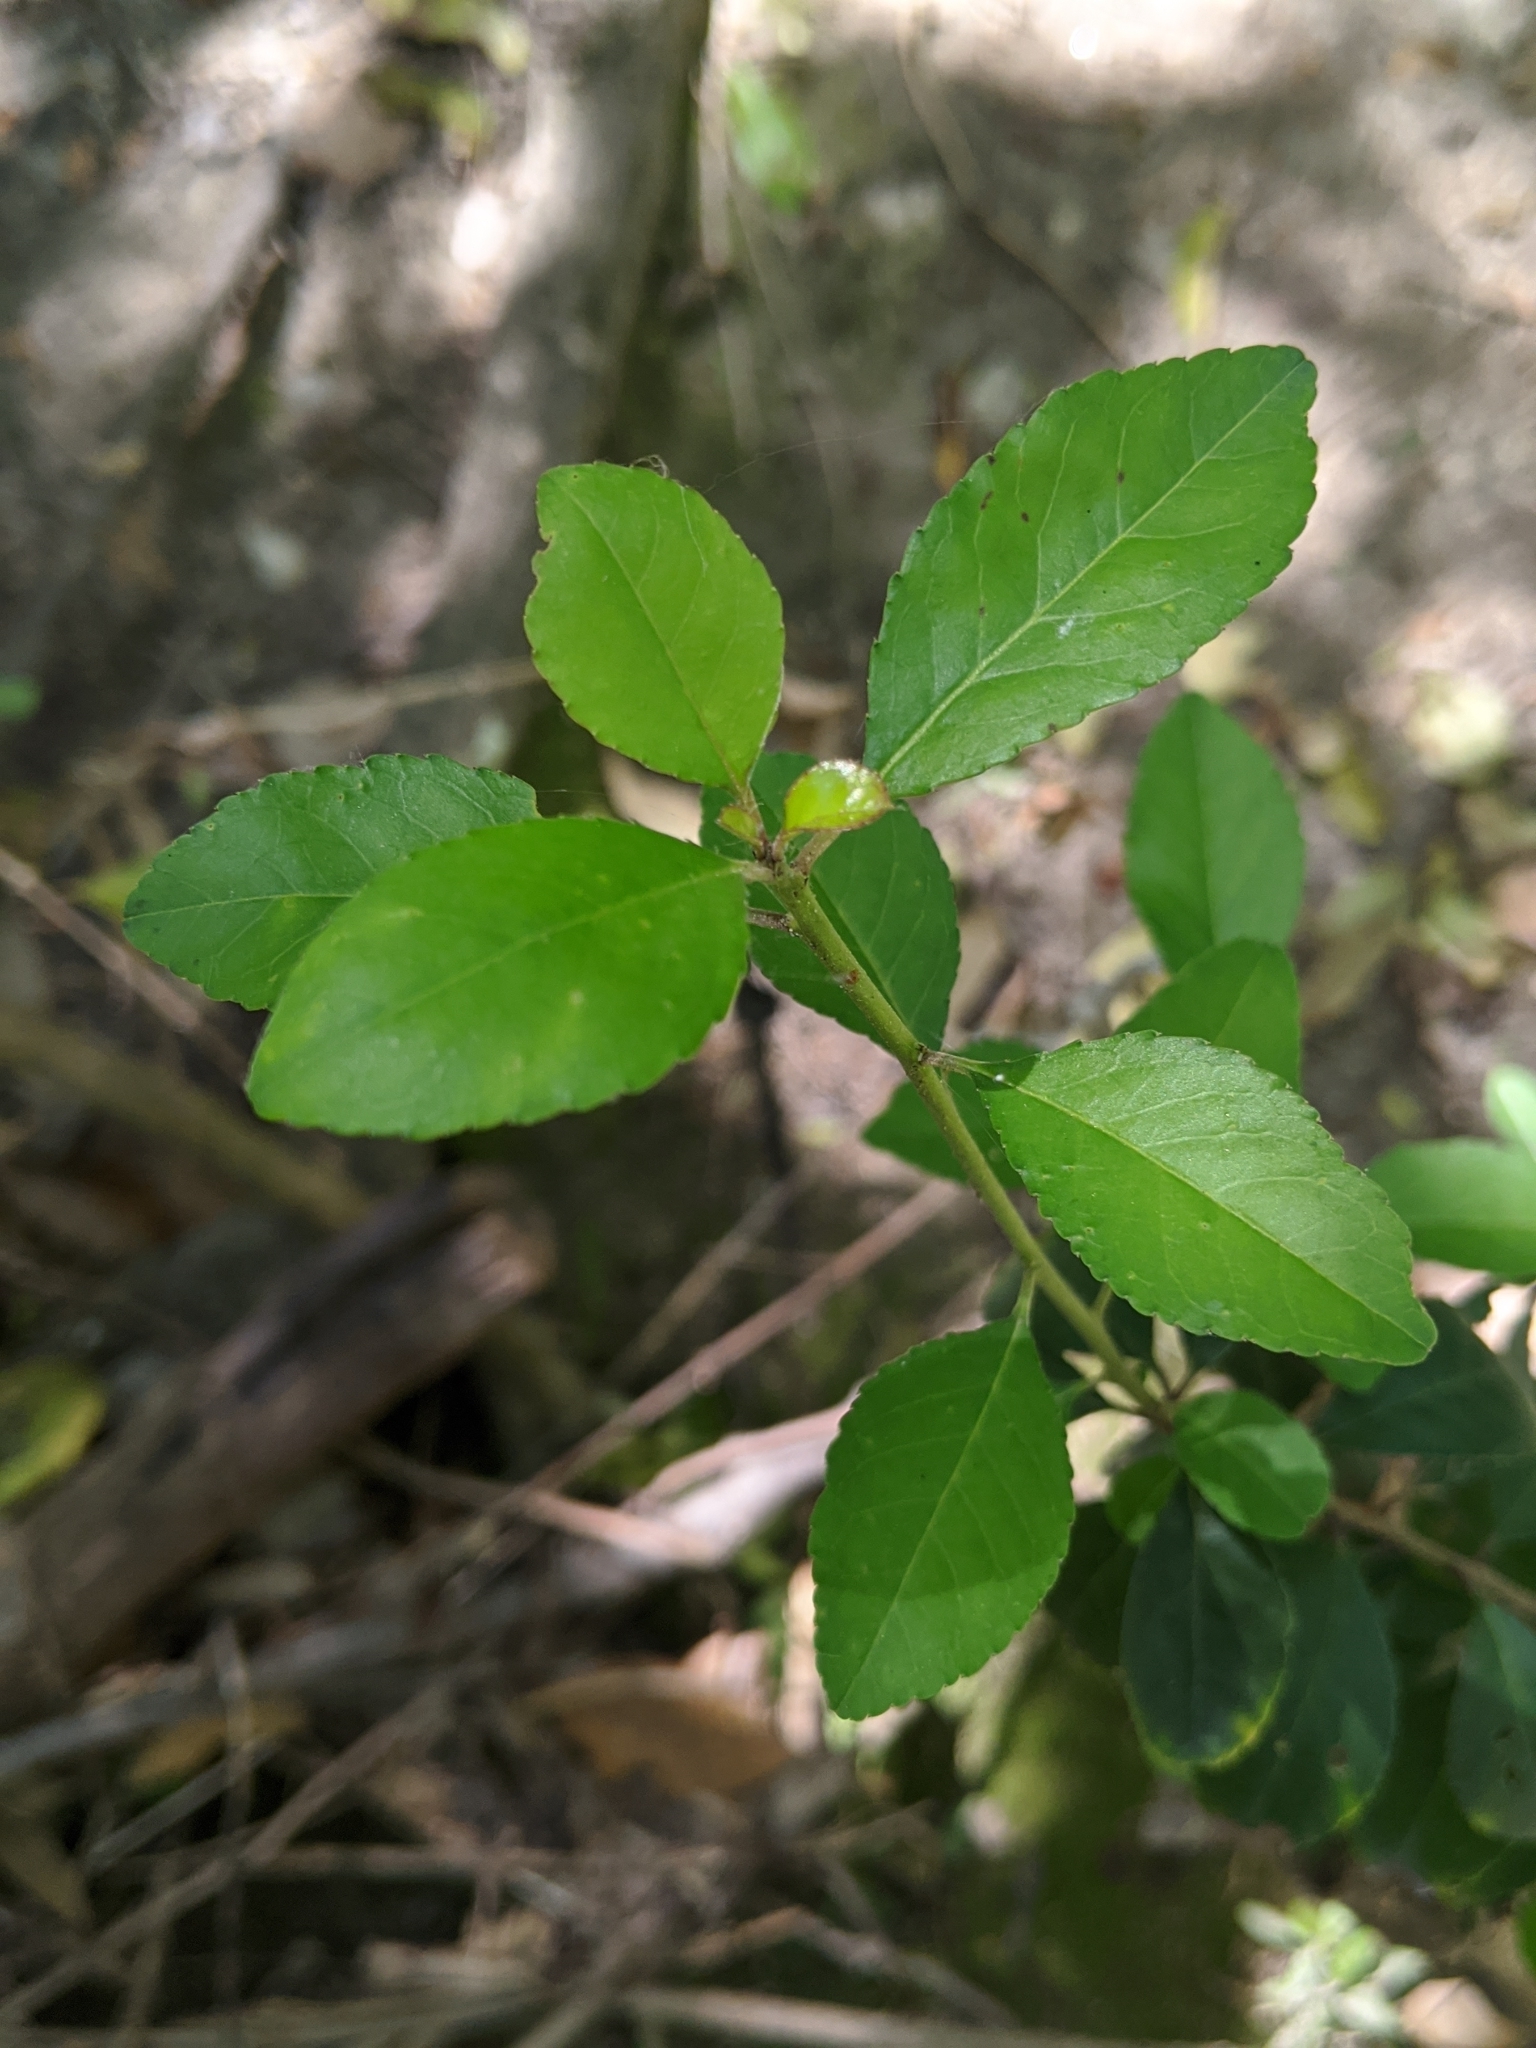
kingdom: Plantae
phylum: Tracheophyta
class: Magnoliopsida
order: Aquifoliales
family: Aquifoliaceae
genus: Ilex
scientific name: Ilex decidua
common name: Possum-haw
